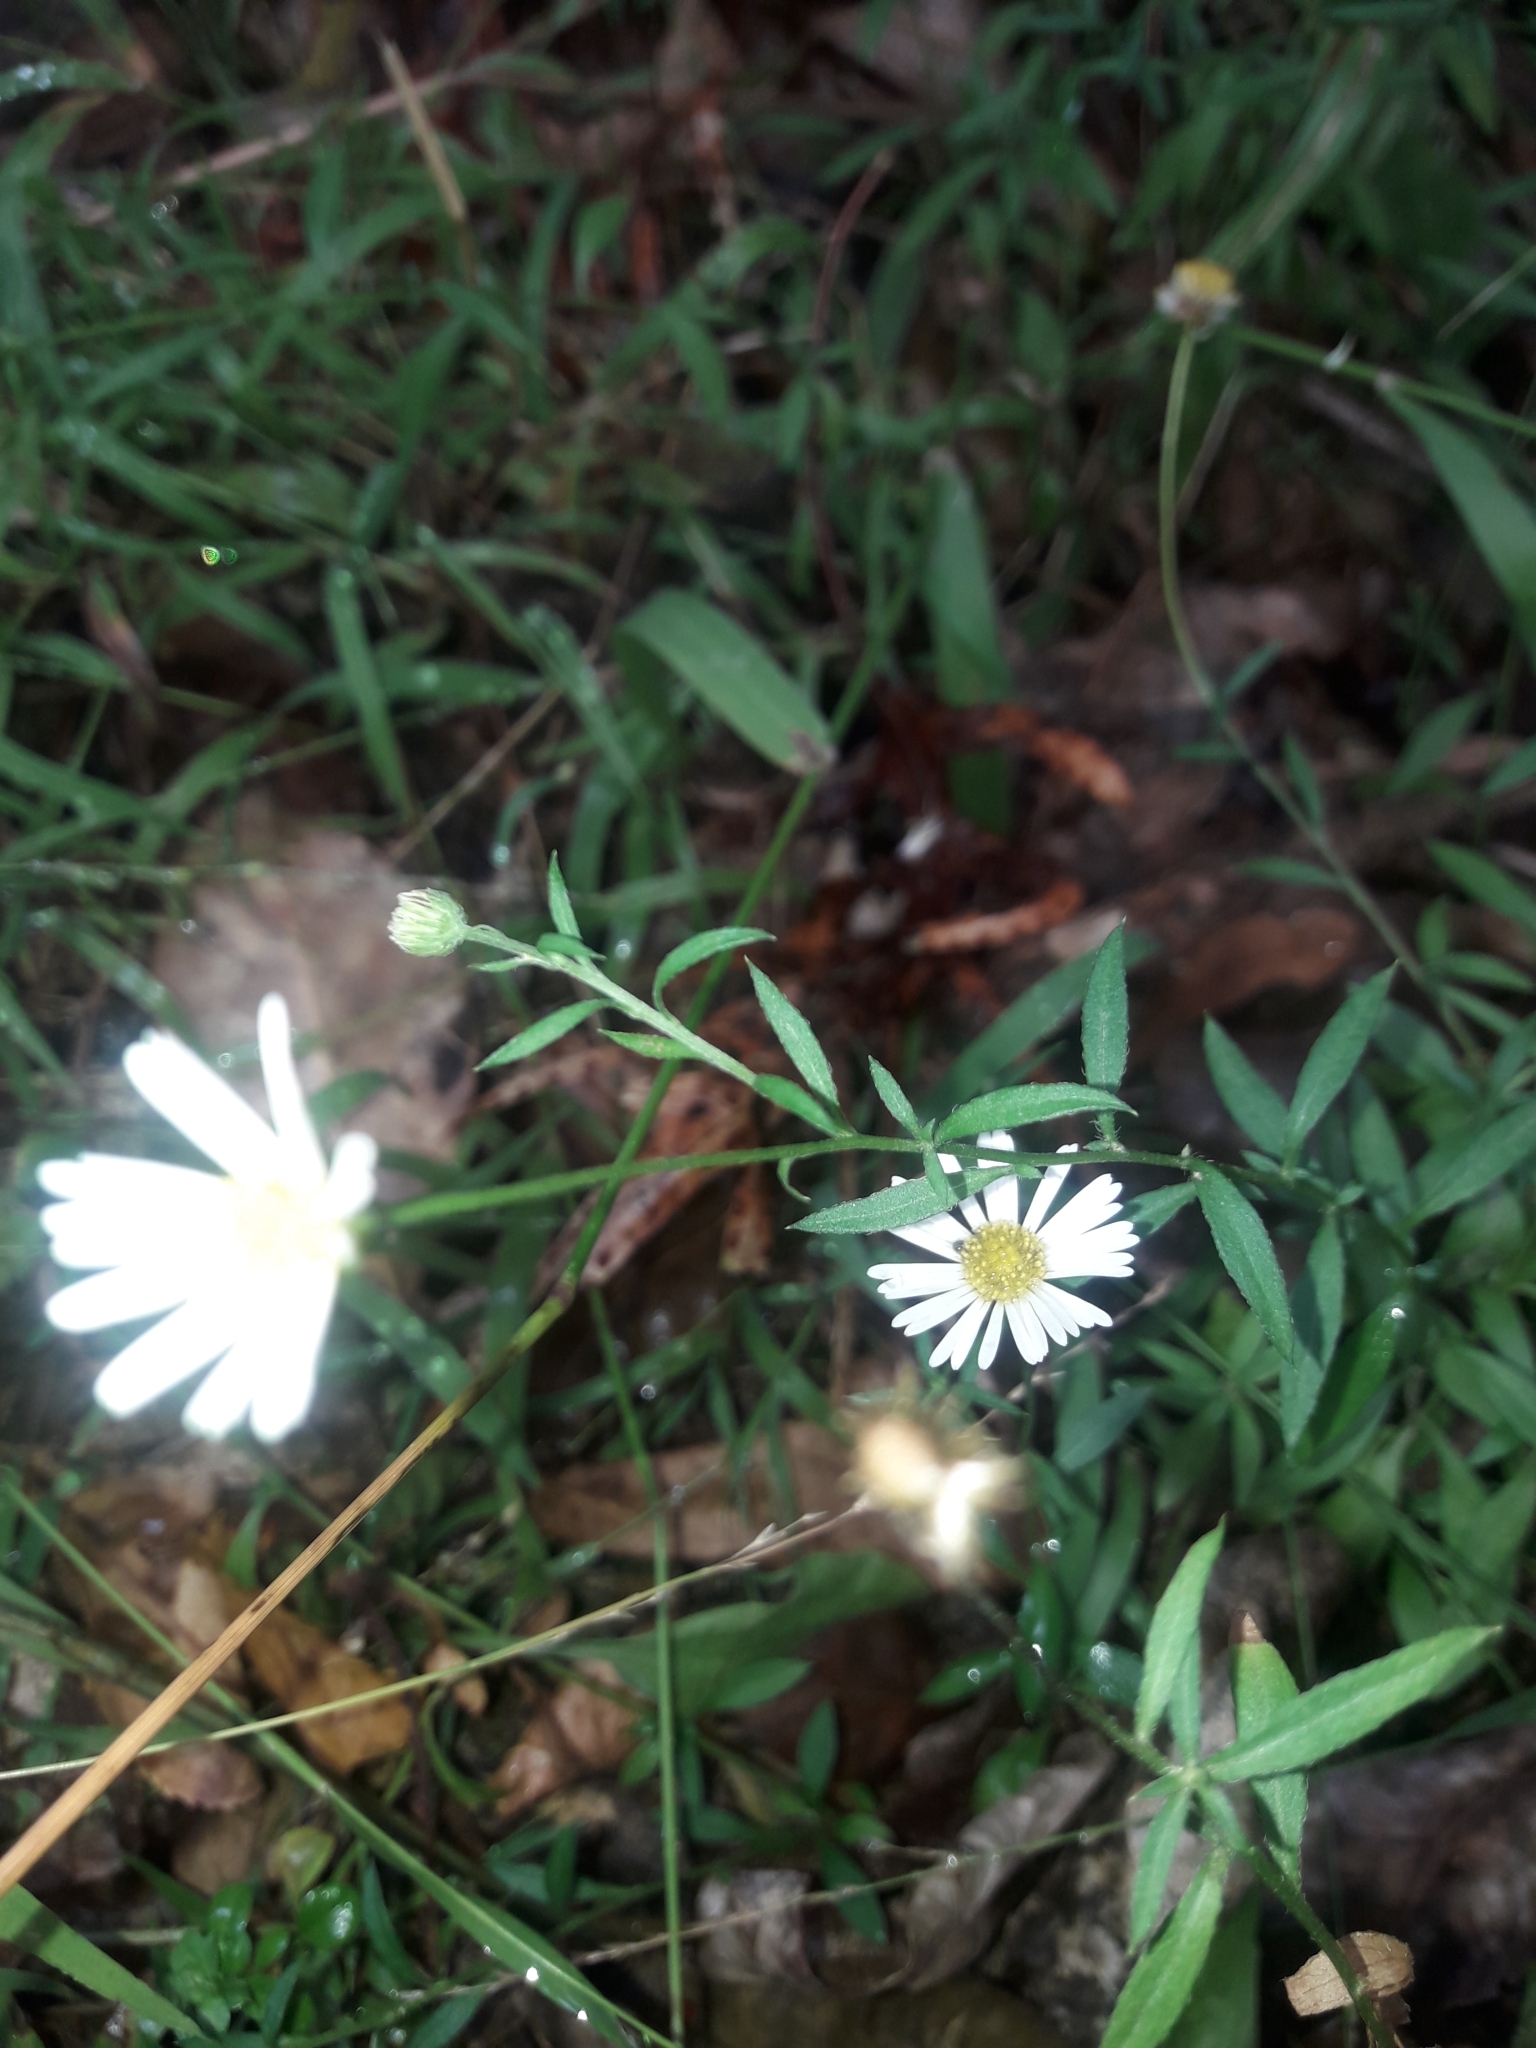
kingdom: Plantae
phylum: Tracheophyta
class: Magnoliopsida
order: Asterales
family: Asteraceae
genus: Erigeron
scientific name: Erigeron karvinskianus
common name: Mexican fleabane
